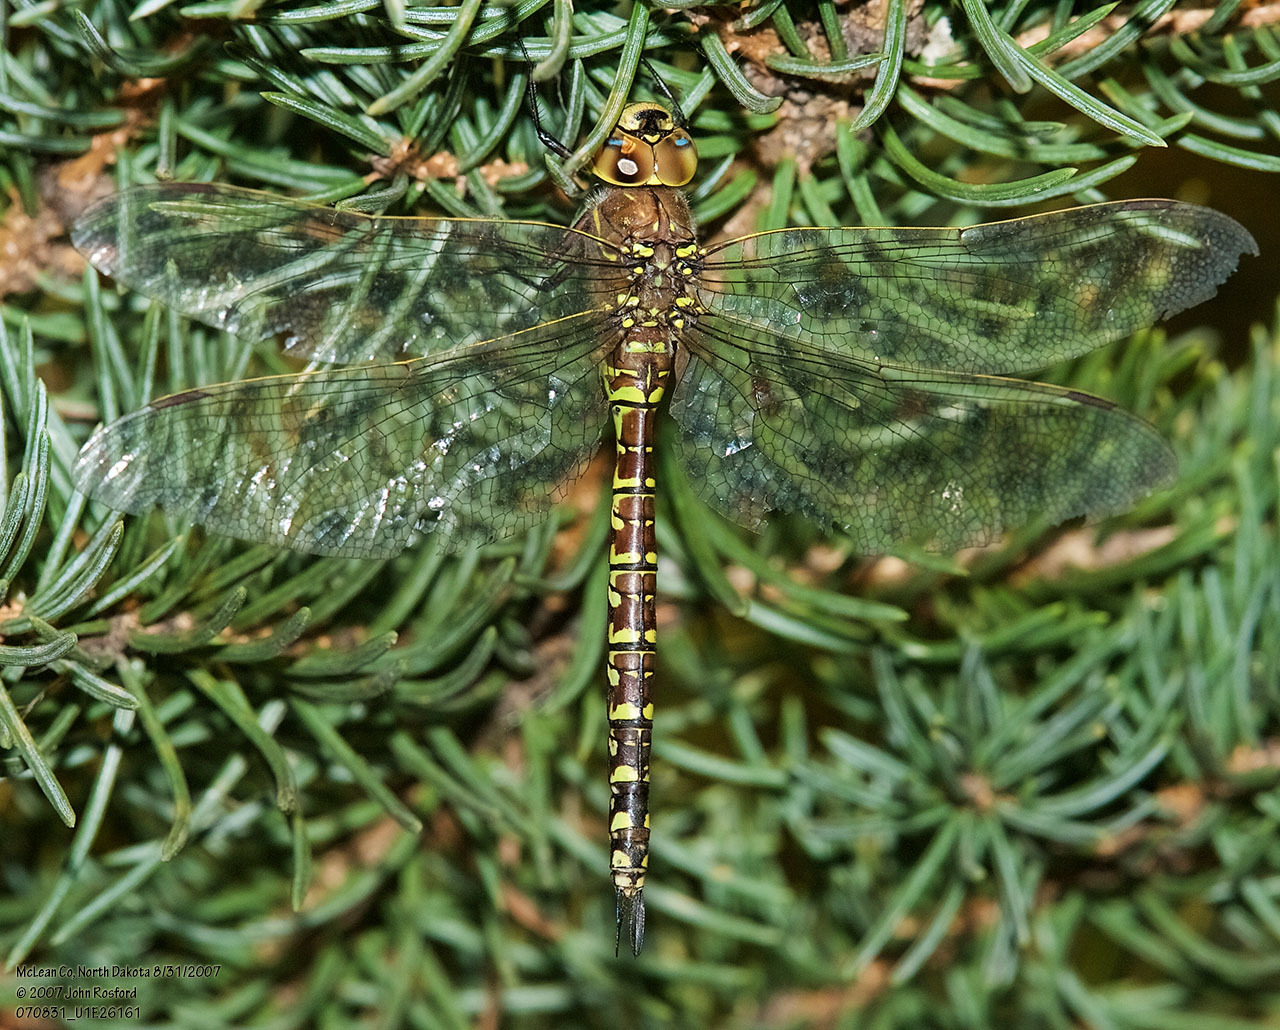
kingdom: Animalia
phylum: Arthropoda
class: Insecta
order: Odonata
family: Aeshnidae
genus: Aeshna
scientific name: Aeshna interrupta
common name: Variable darner
